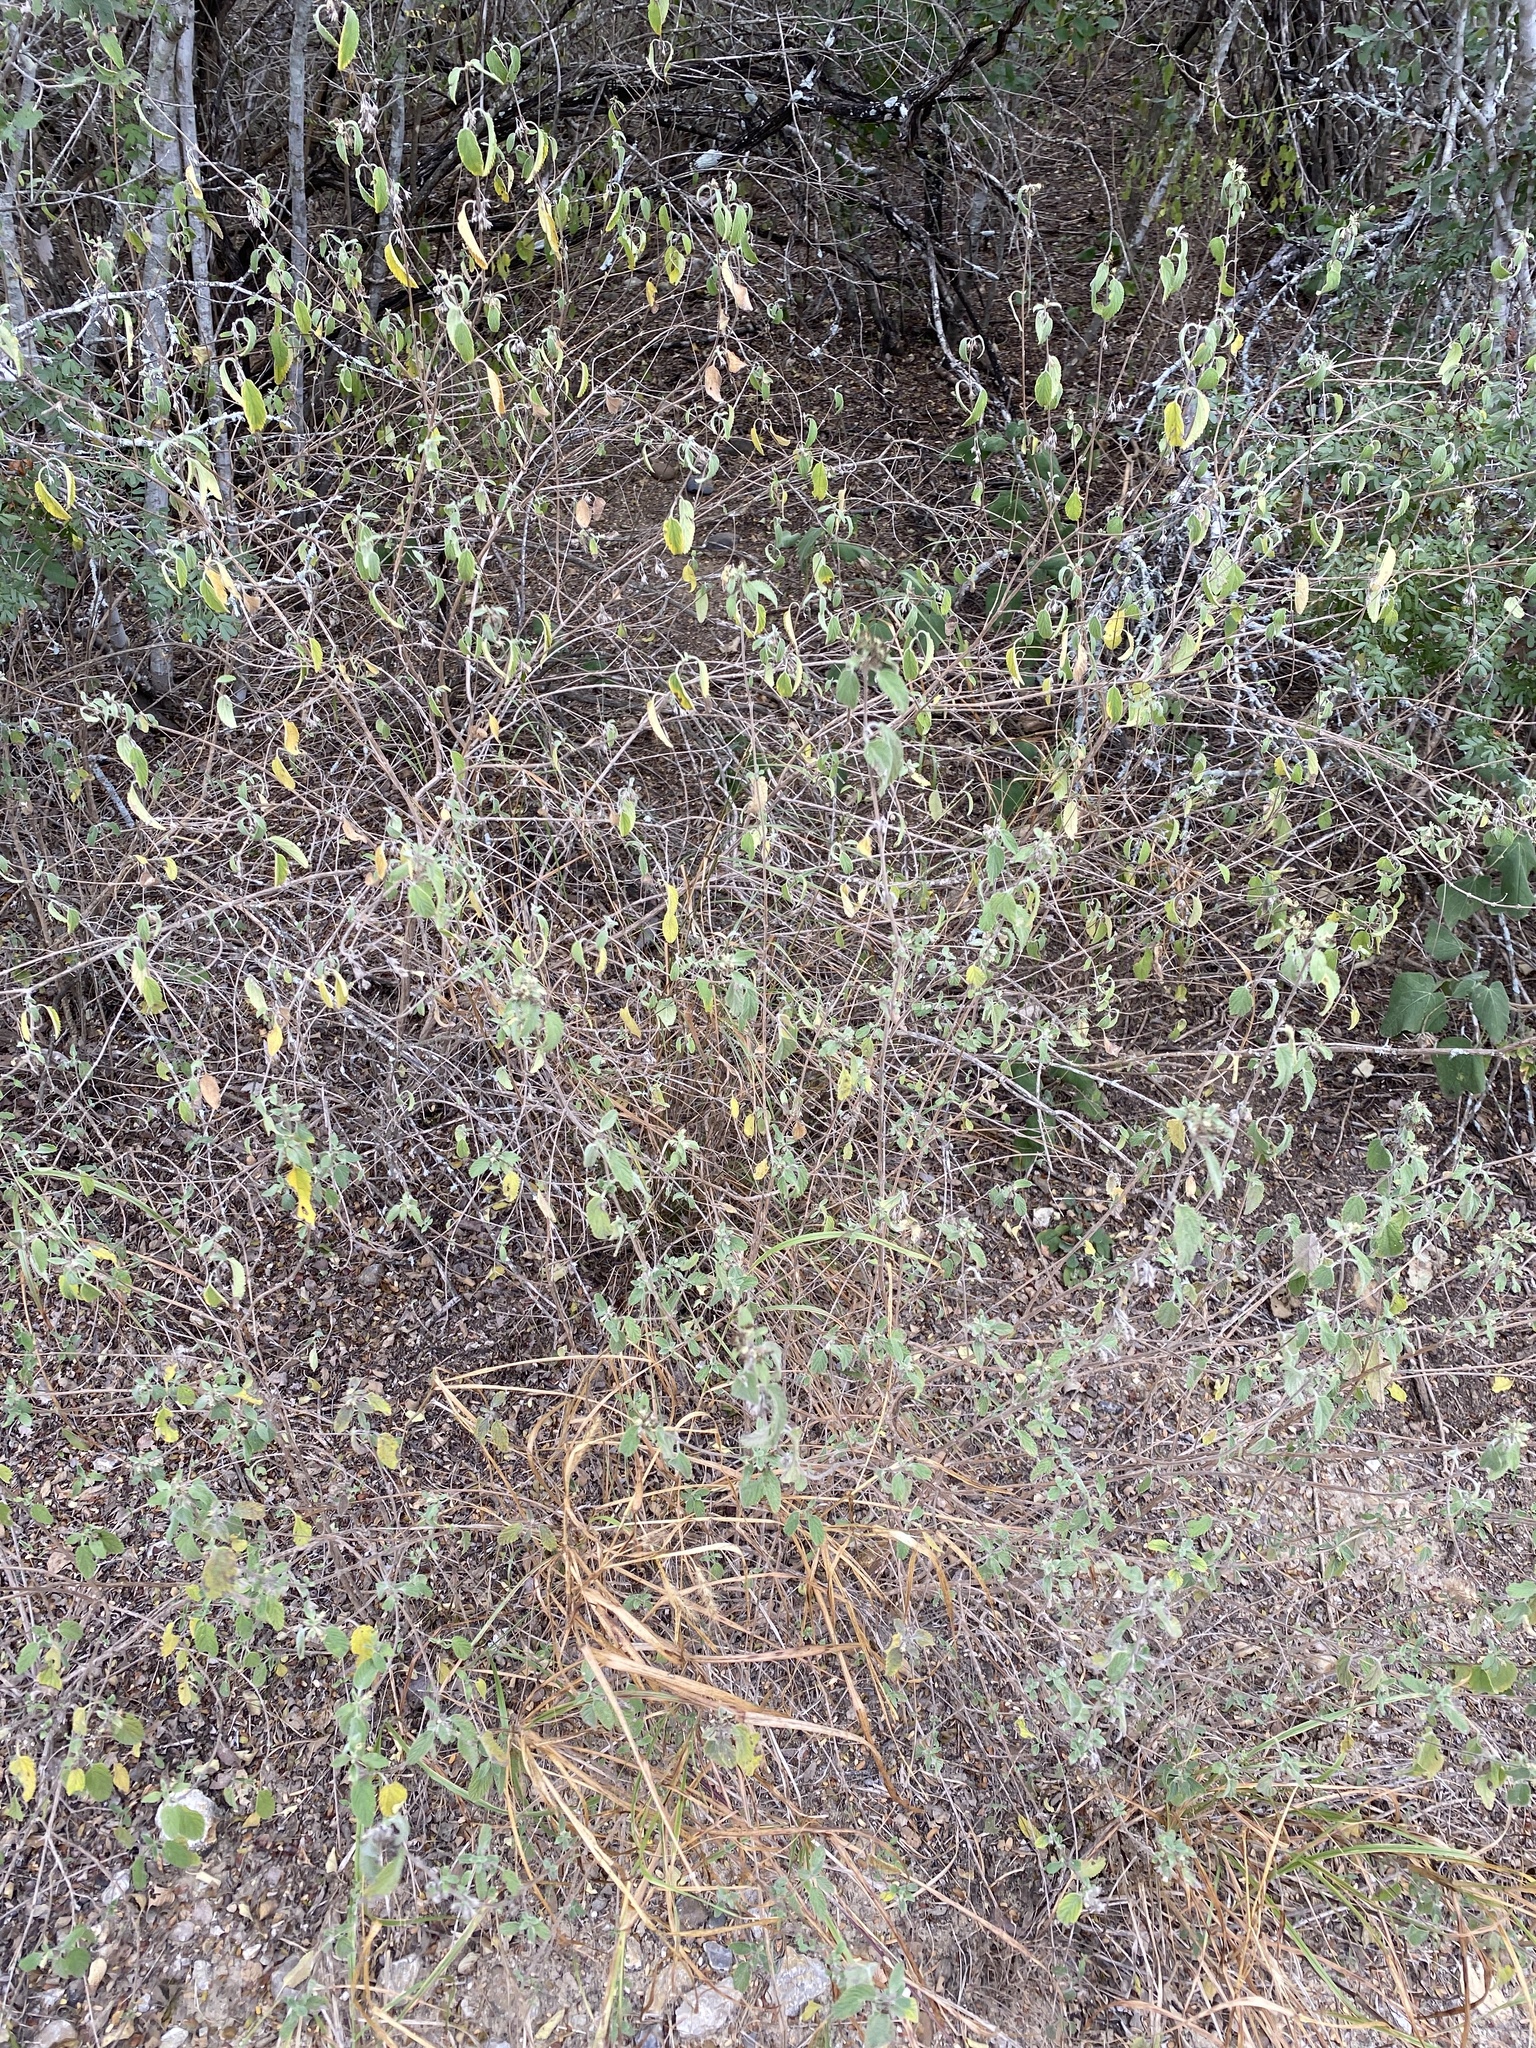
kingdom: Plantae
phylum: Tracheophyta
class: Magnoliopsida
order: Lamiales
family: Verbenaceae
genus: Lippia
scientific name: Lippia origanoides
